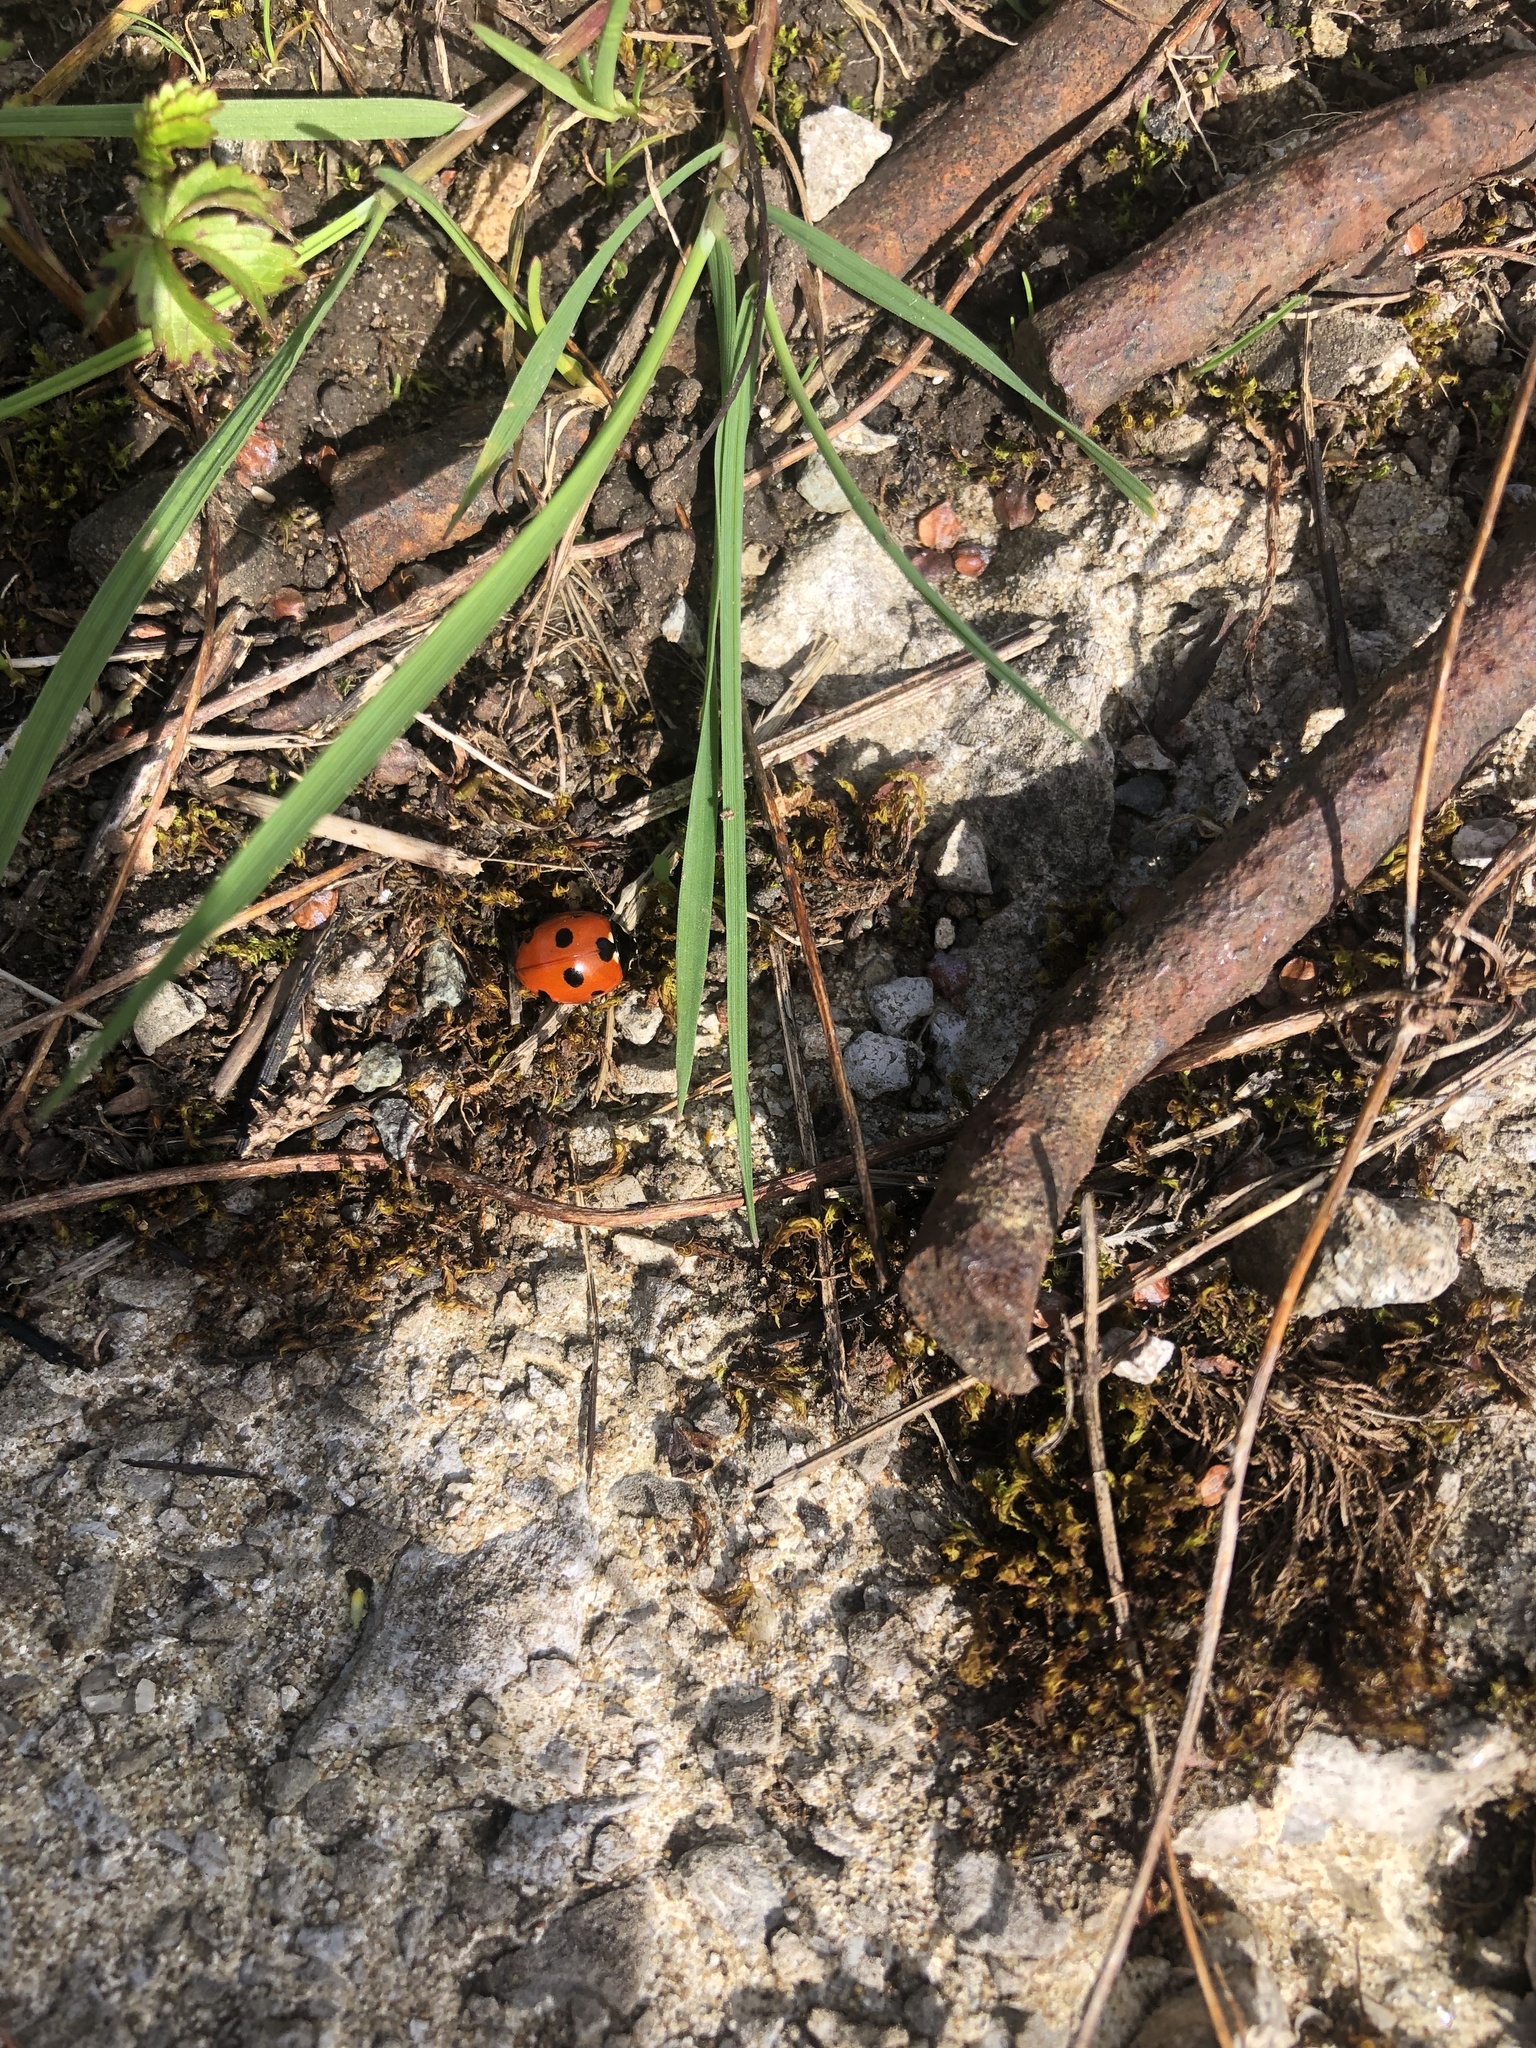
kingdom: Animalia
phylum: Arthropoda
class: Insecta
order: Coleoptera
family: Coccinellidae
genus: Coccinella
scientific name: Coccinella septempunctata
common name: Sevenspotted lady beetle
